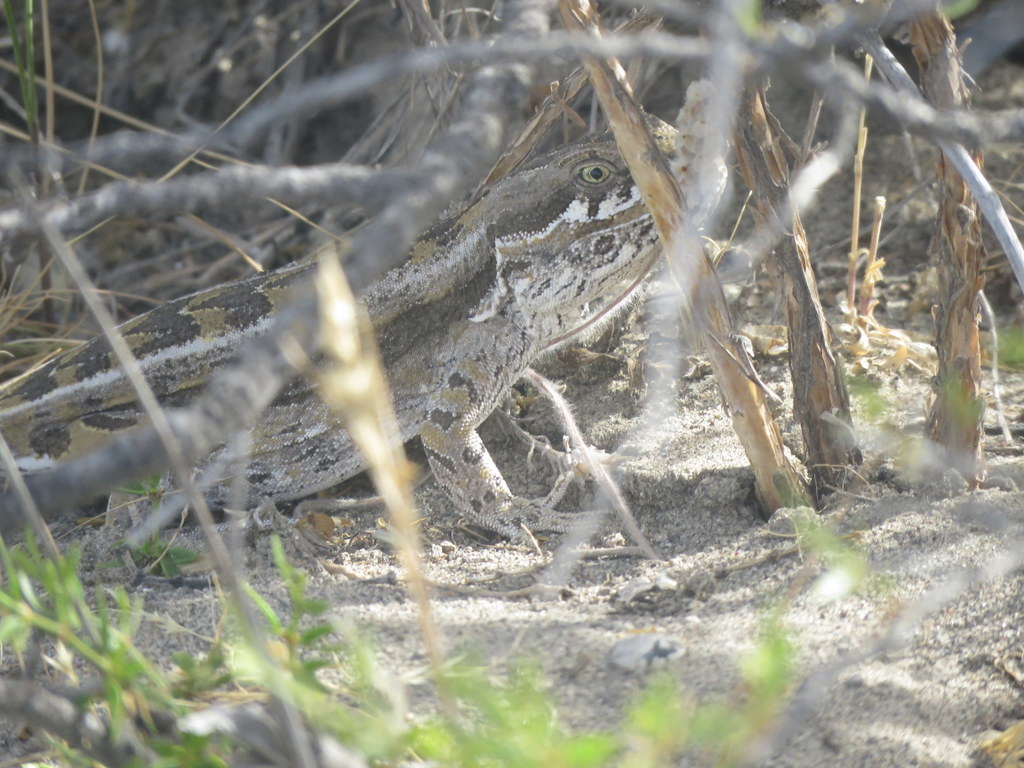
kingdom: Animalia
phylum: Chordata
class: Squamata
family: Leiosauridae
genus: Leiosaurus
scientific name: Leiosaurus bellii
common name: Bell's anole
